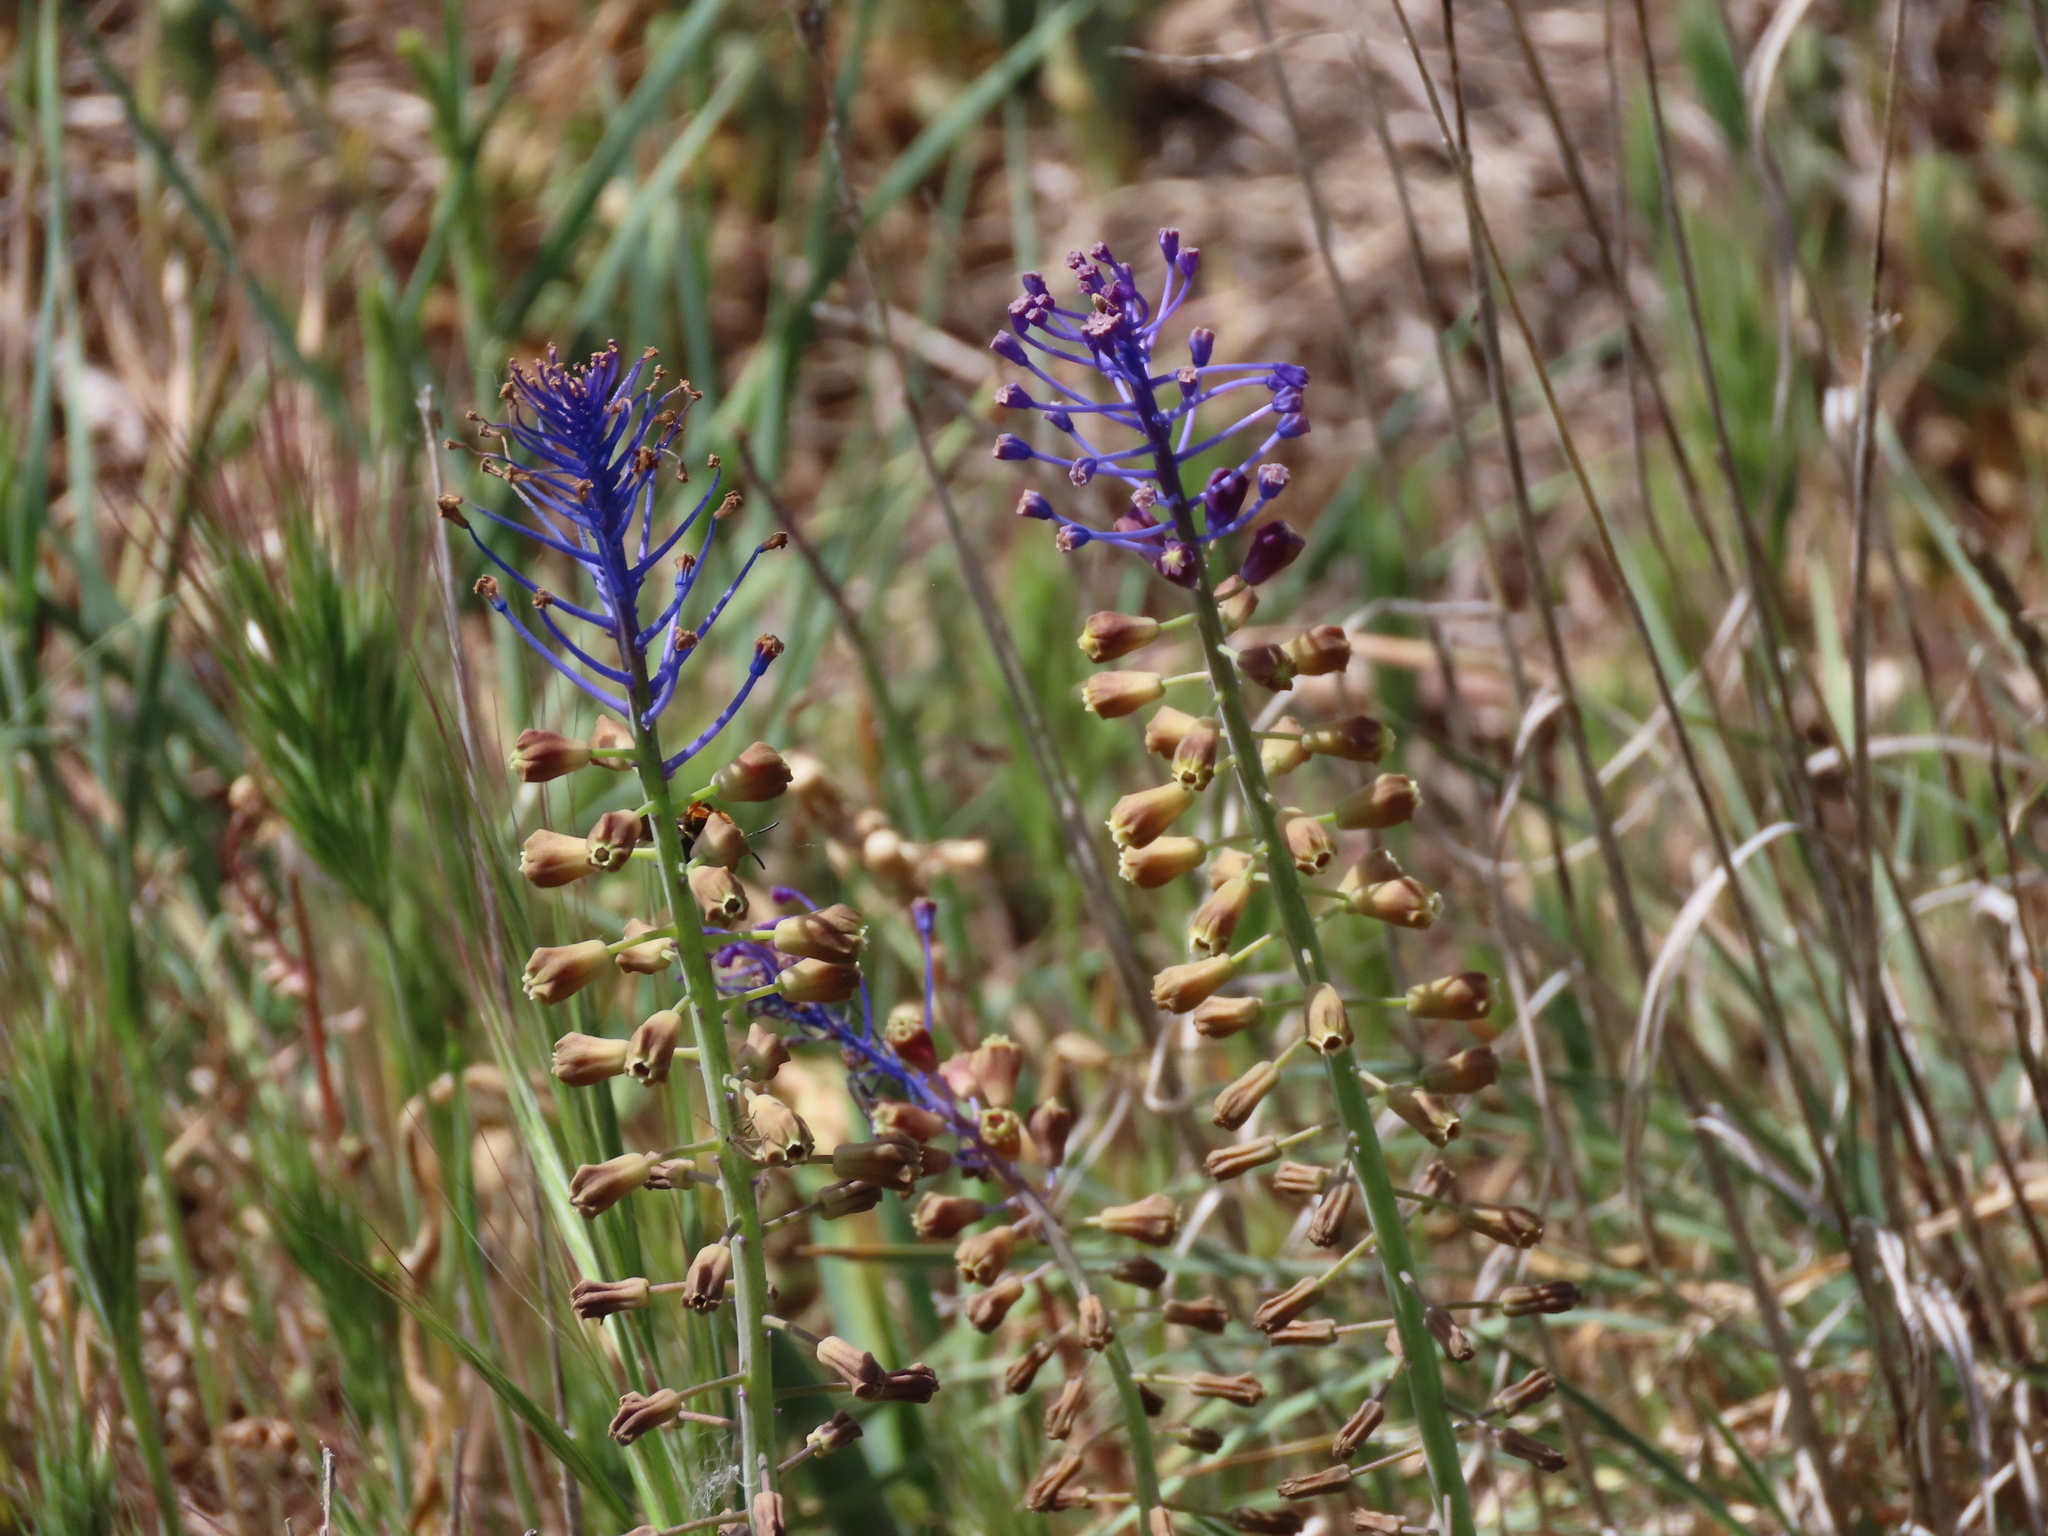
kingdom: Plantae
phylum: Tracheophyta
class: Liliopsida
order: Asparagales
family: Asparagaceae
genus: Muscari
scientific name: Muscari comosum
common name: Tassel hyacinth
